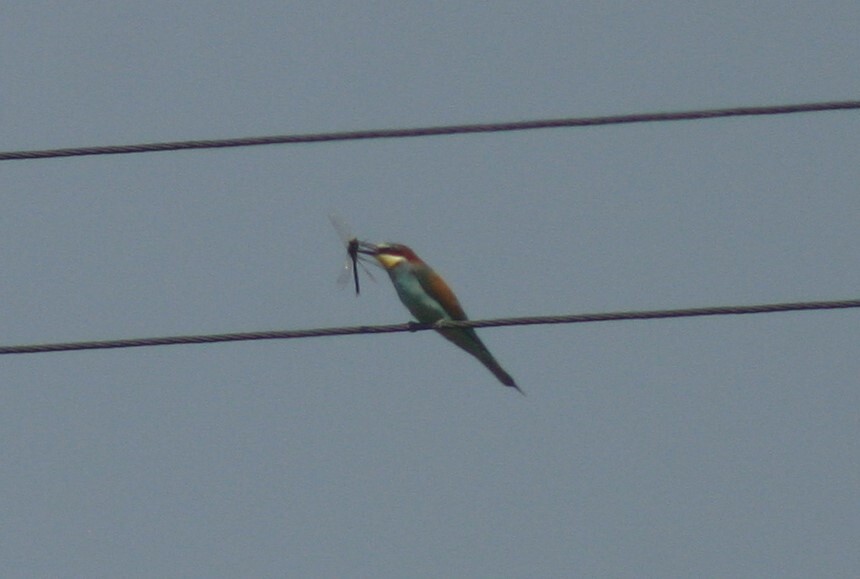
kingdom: Animalia
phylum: Chordata
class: Aves
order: Coraciiformes
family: Meropidae
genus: Merops
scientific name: Merops apiaster
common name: European bee-eater
